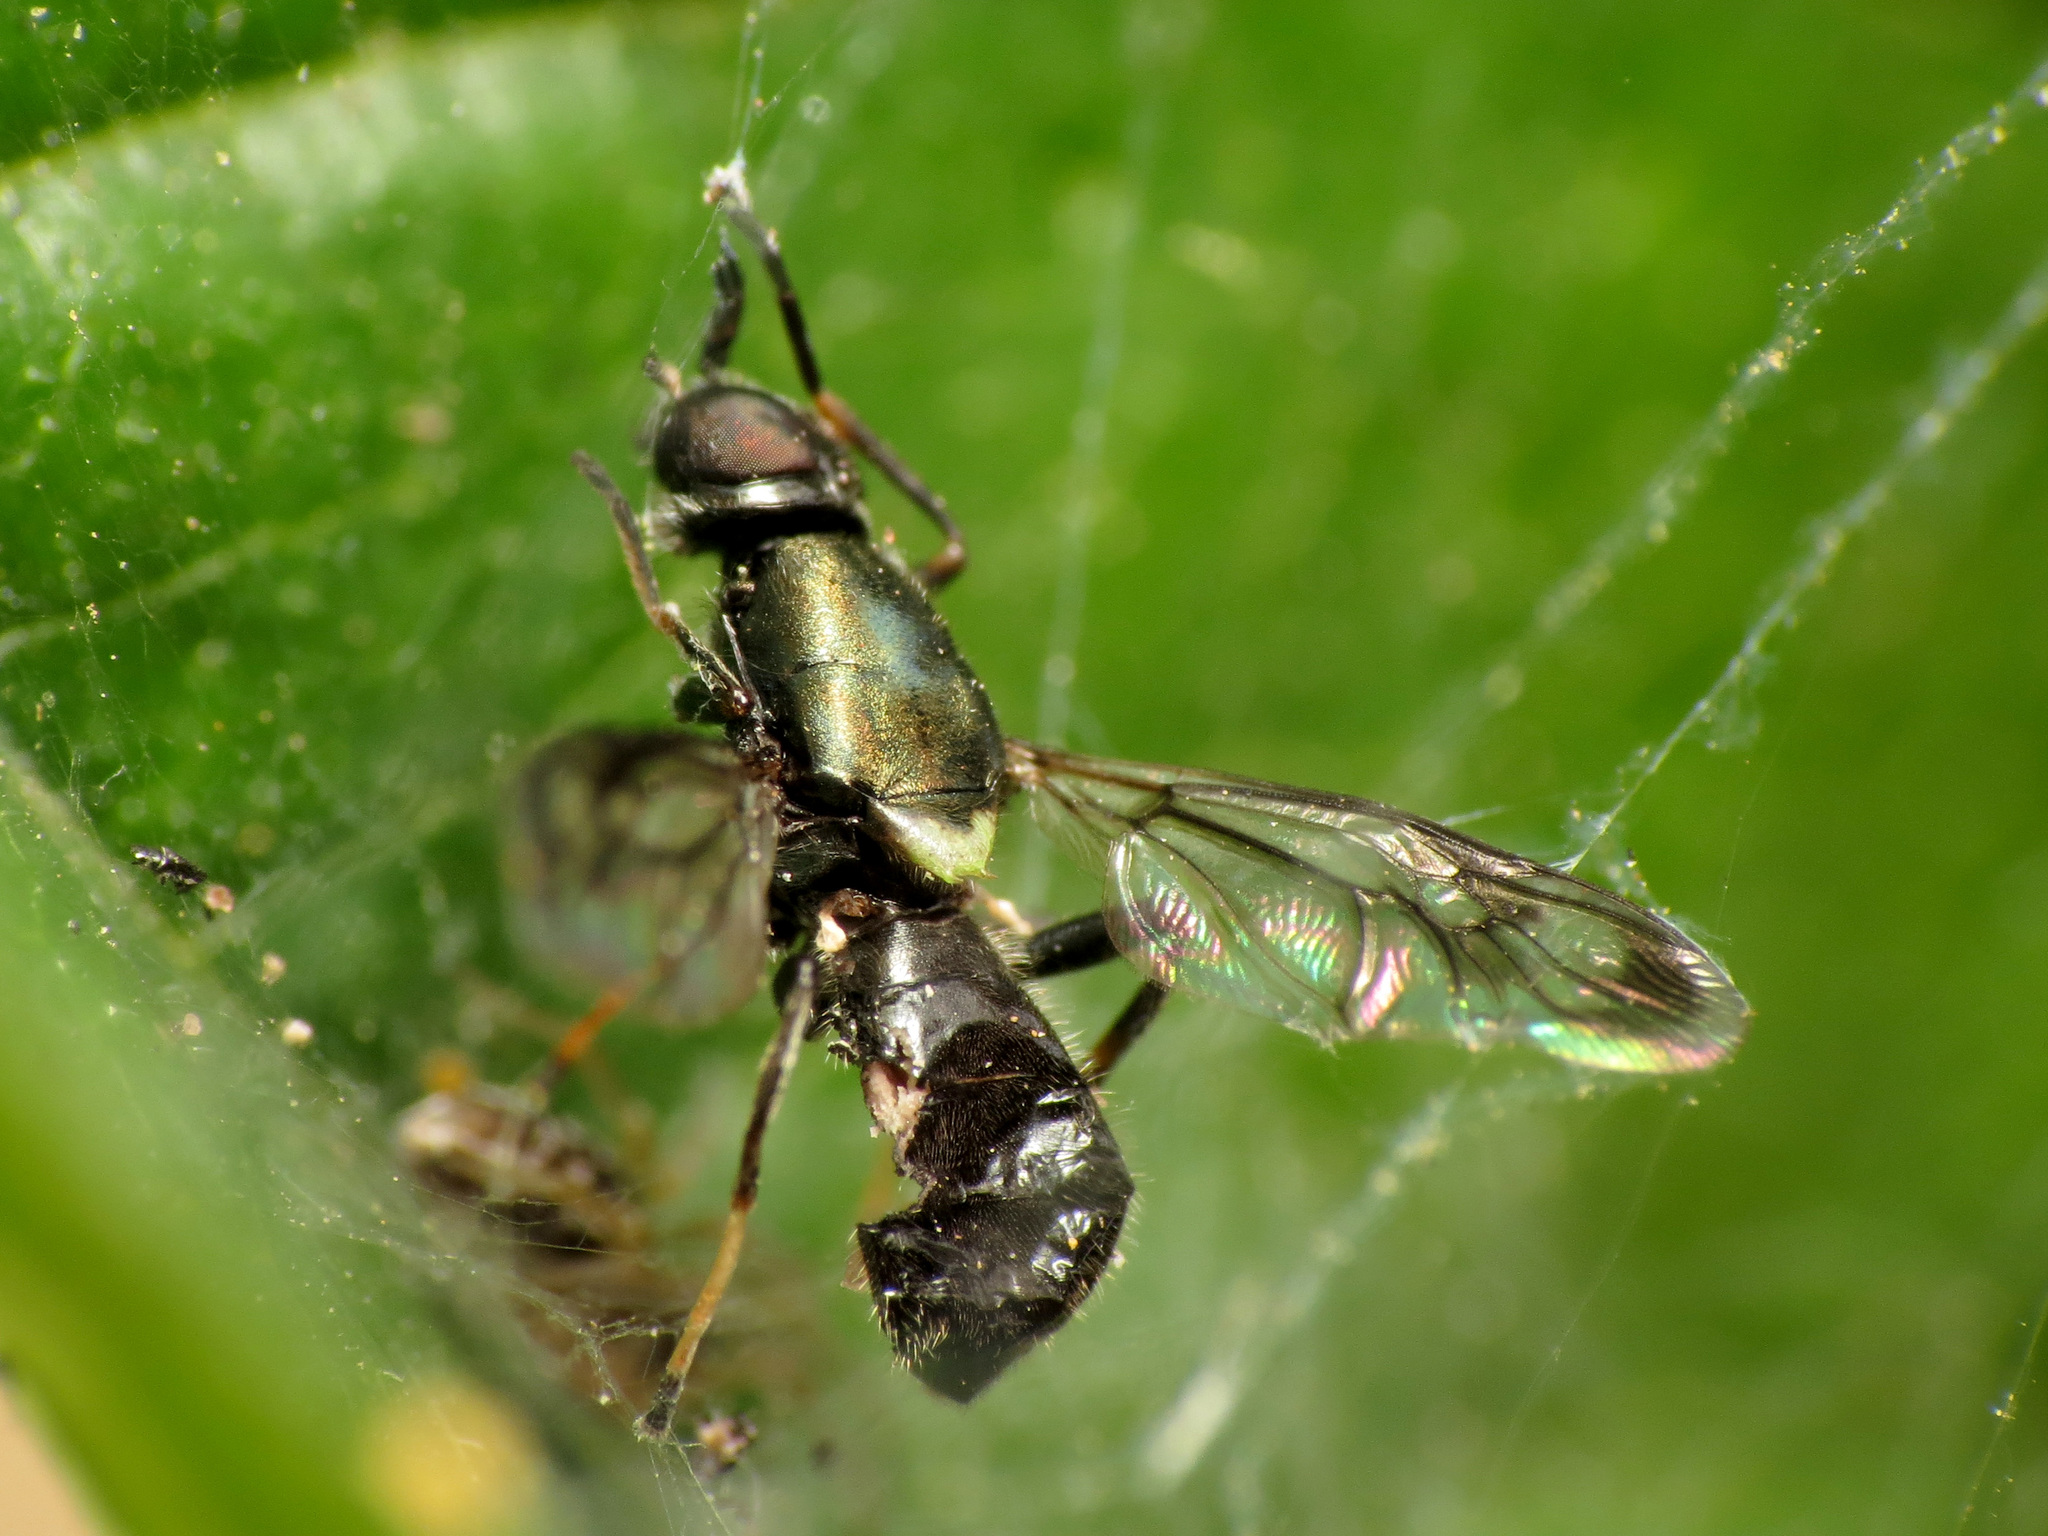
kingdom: Animalia
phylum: Arthropoda
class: Insecta
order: Diptera
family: Stratiomyidae
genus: Myxosargus
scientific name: Myxosargus nigricormis
